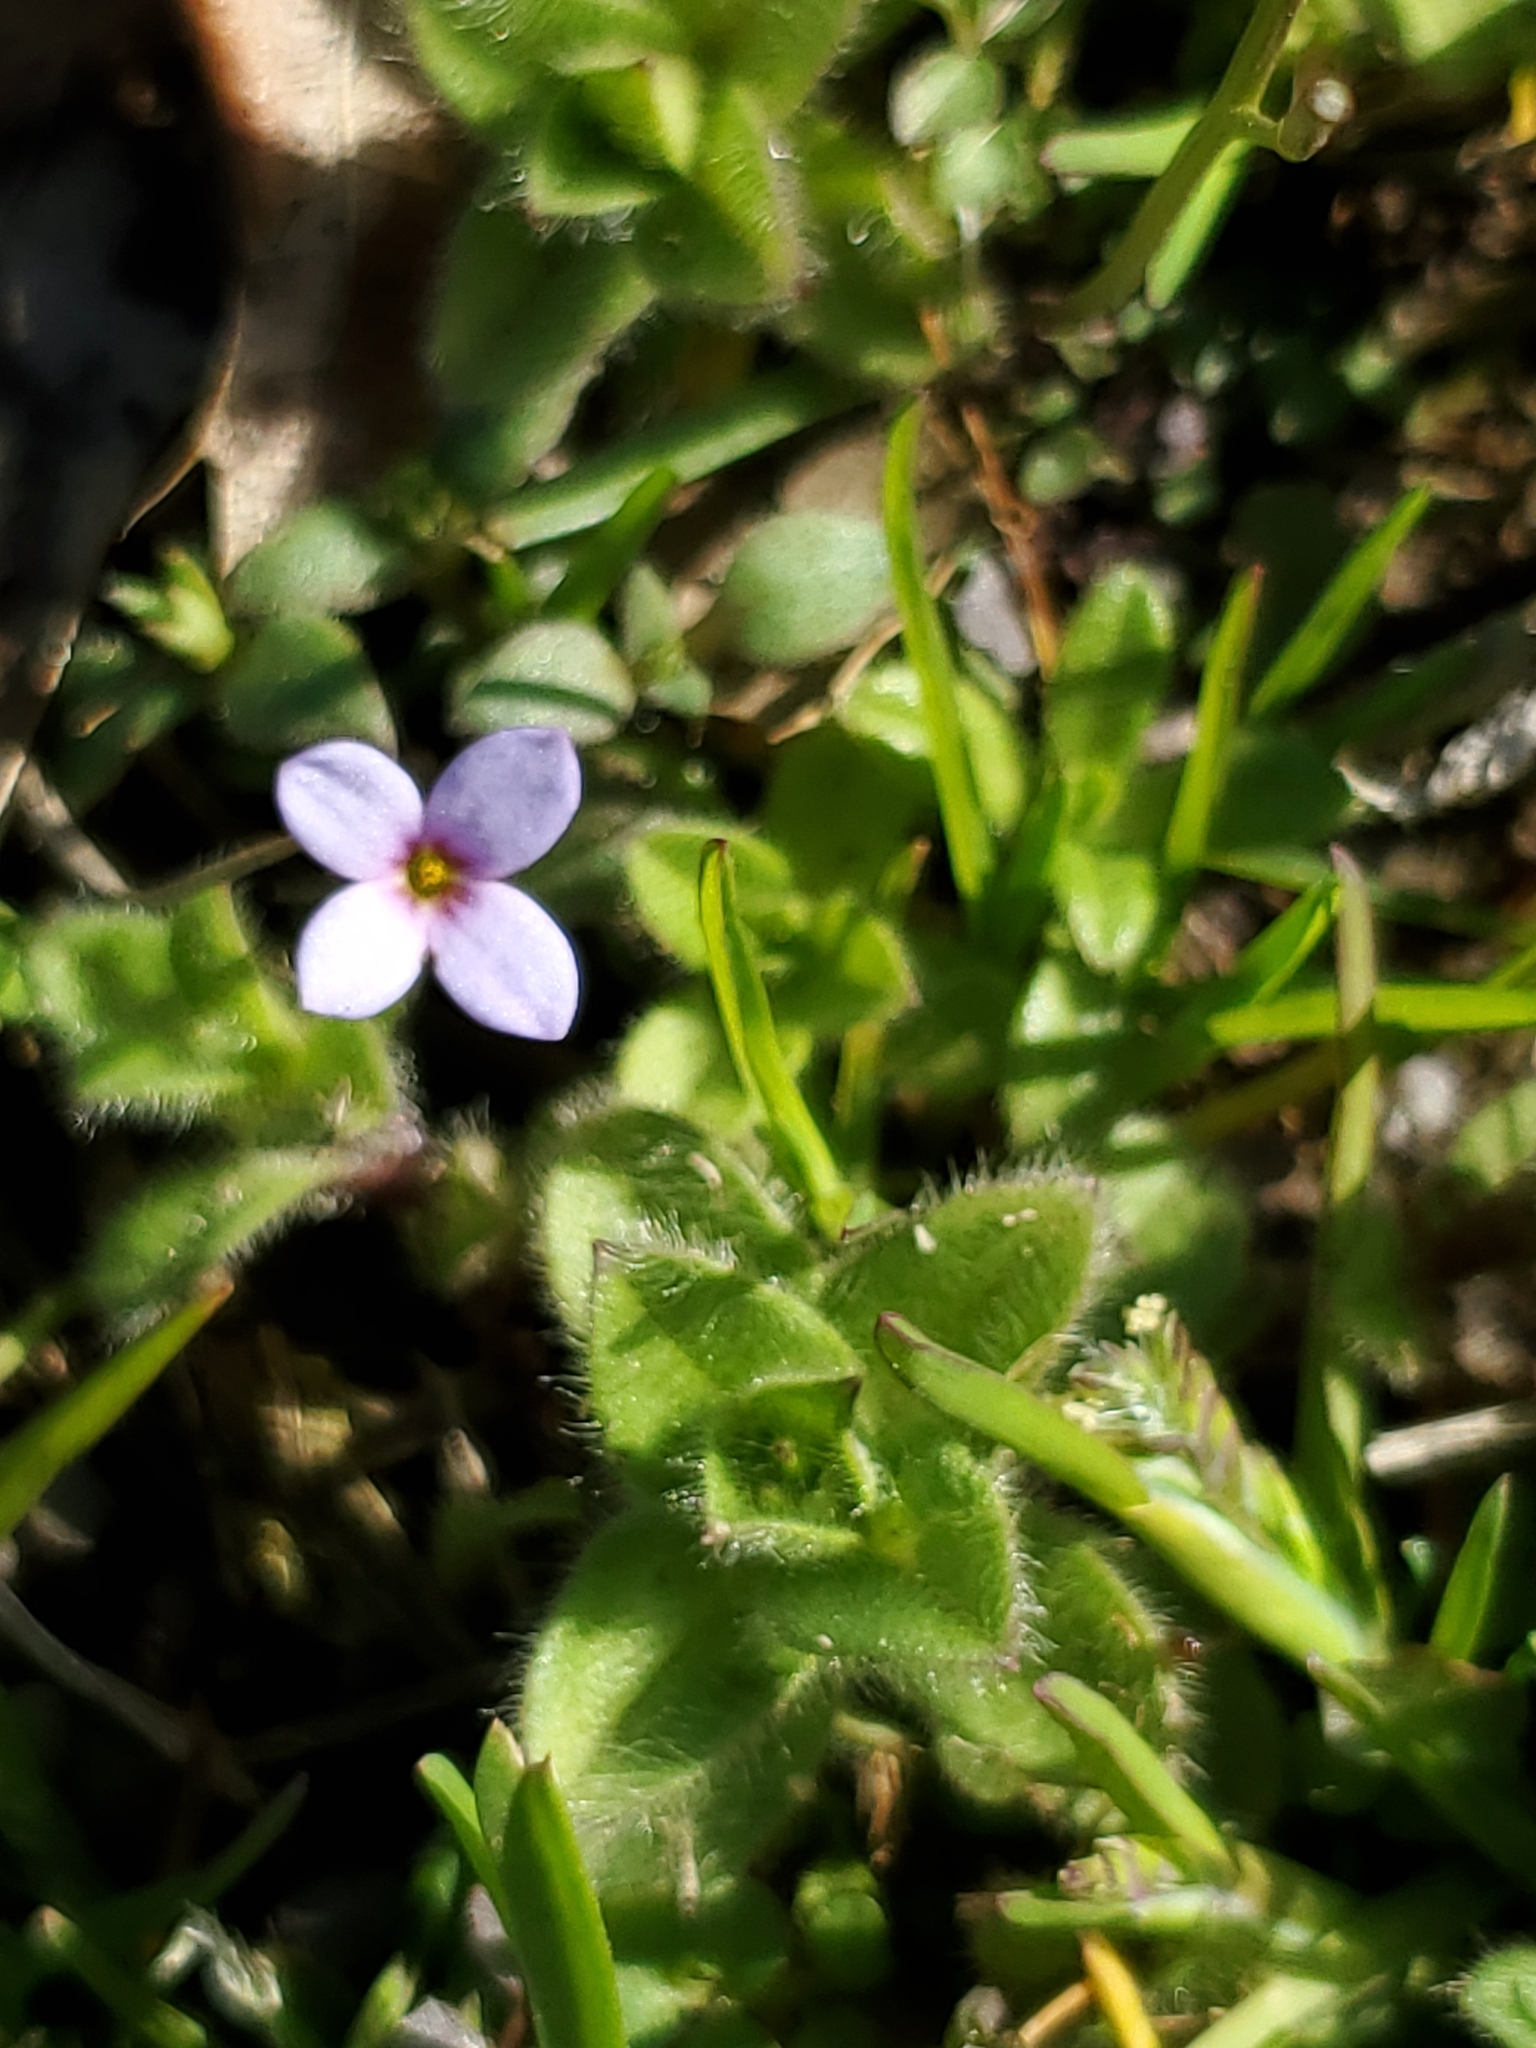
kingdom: Plantae
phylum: Tracheophyta
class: Magnoliopsida
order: Gentianales
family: Rubiaceae
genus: Houstonia
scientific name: Houstonia pusilla
